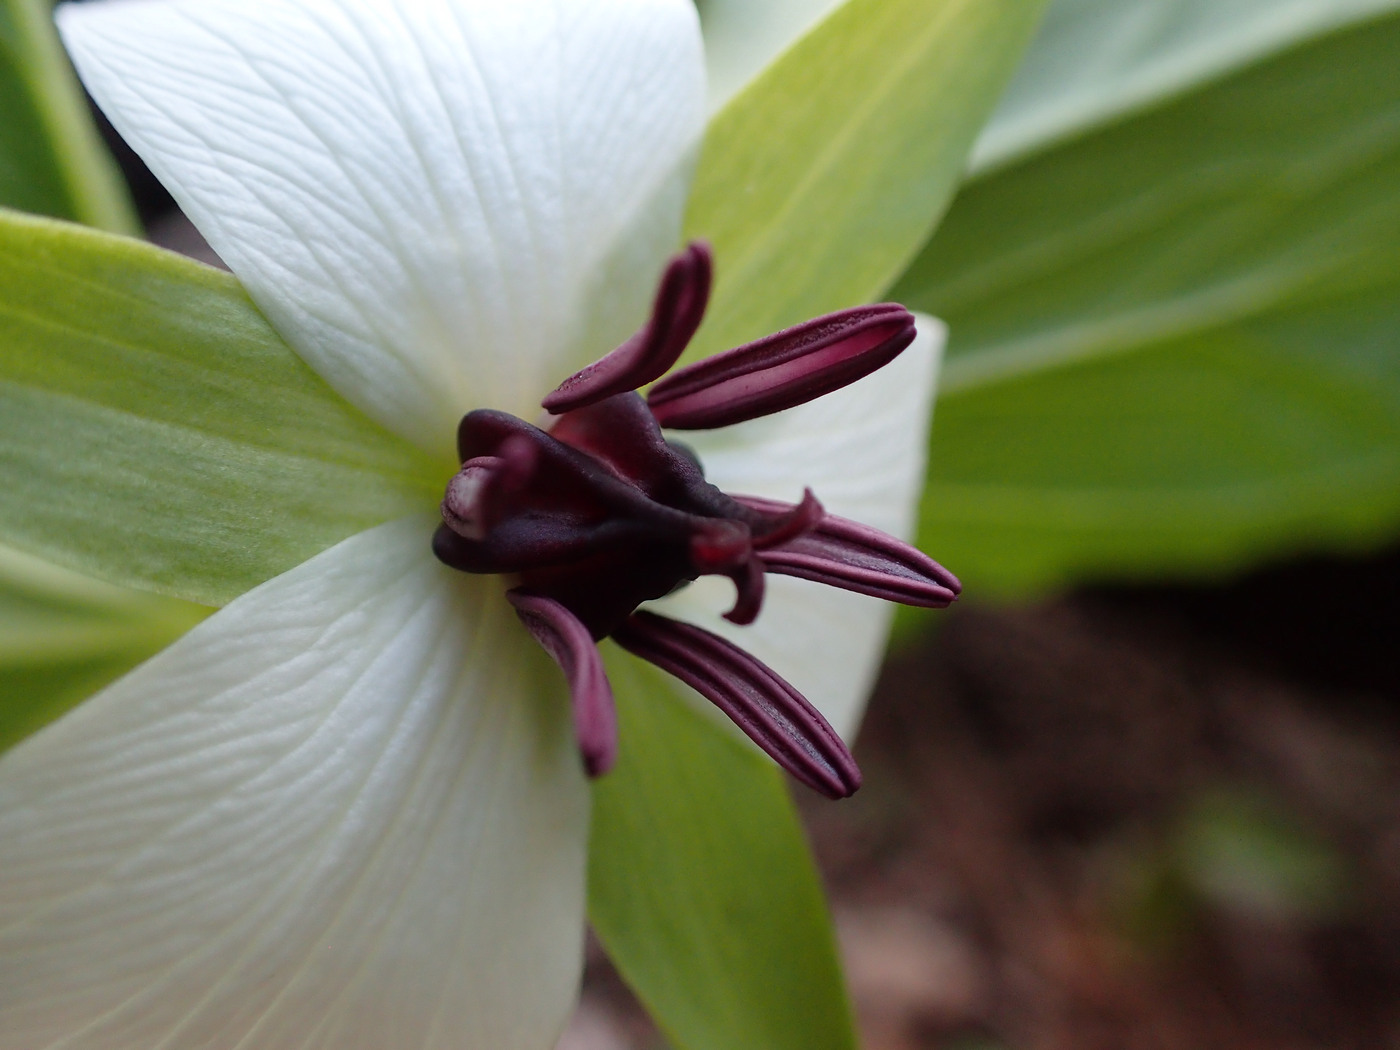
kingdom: Plantae
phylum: Tracheophyta
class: Liliopsida
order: Liliales
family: Melanthiaceae
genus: Trillium
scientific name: Trillium rugelii
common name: Ill-scented trillium
